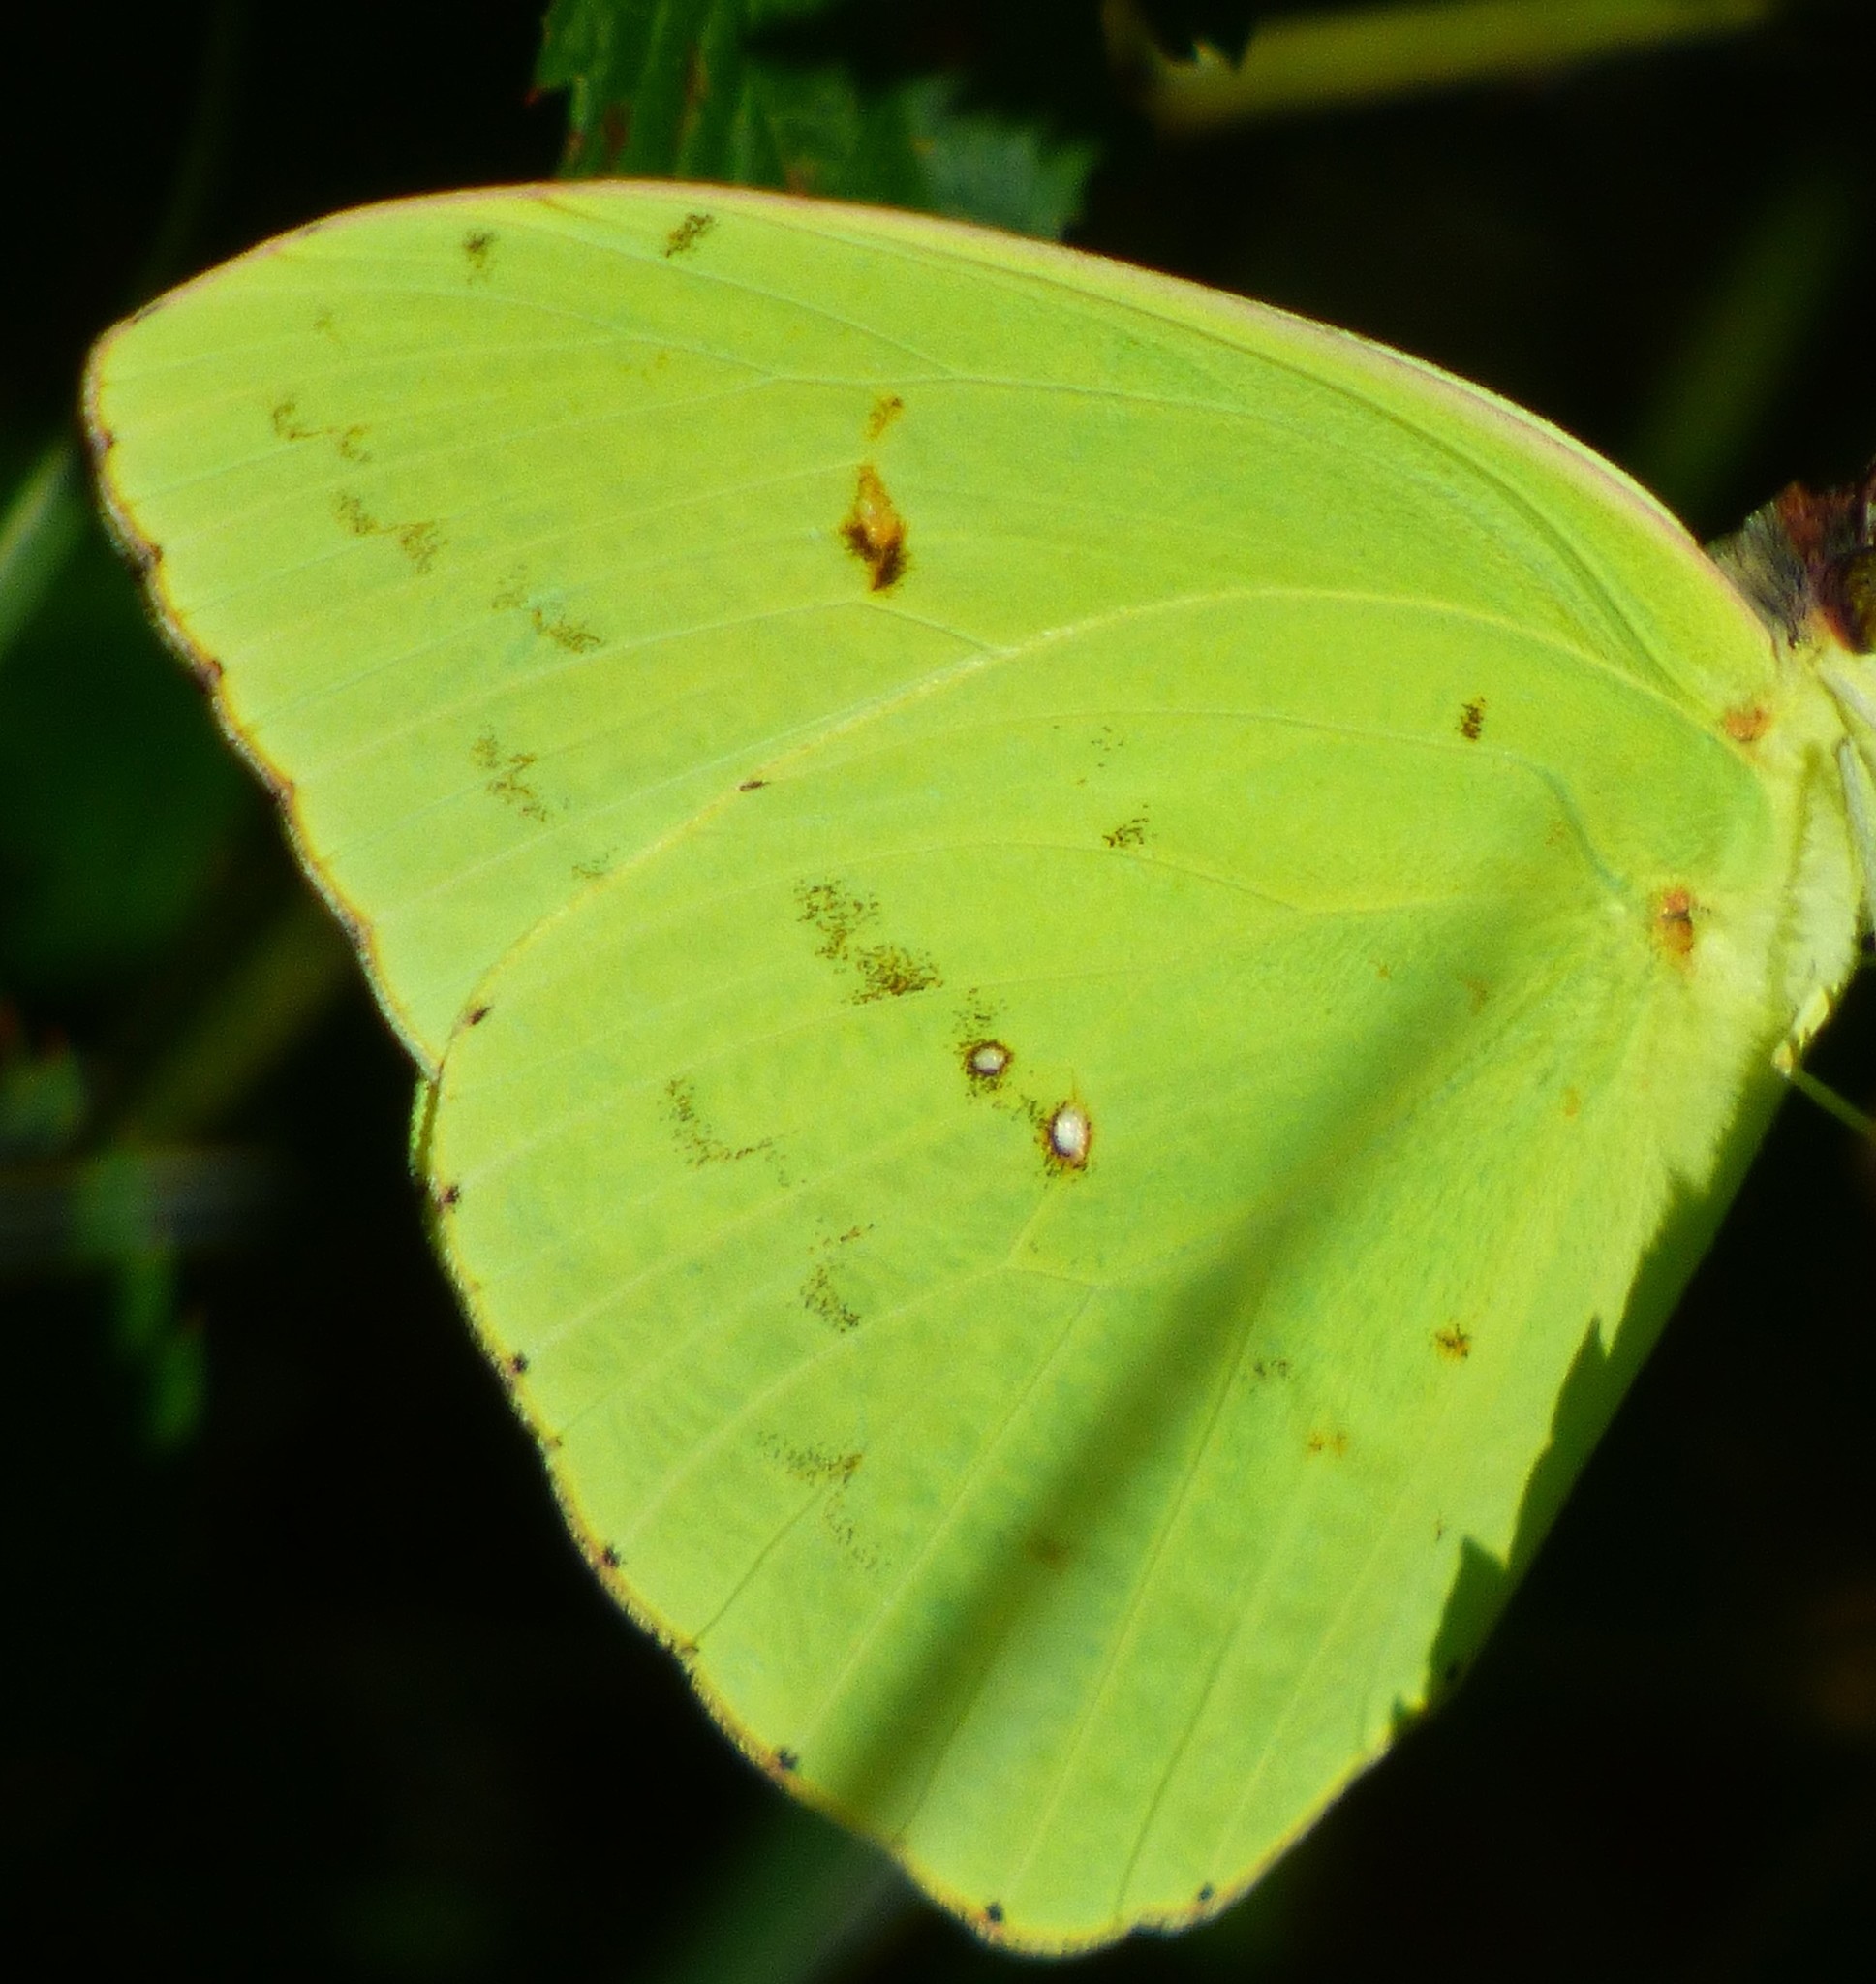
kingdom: Animalia
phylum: Arthropoda
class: Insecta
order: Lepidoptera
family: Pieridae
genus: Phoebis
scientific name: Phoebis sennae
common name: Cloudless sulphur
